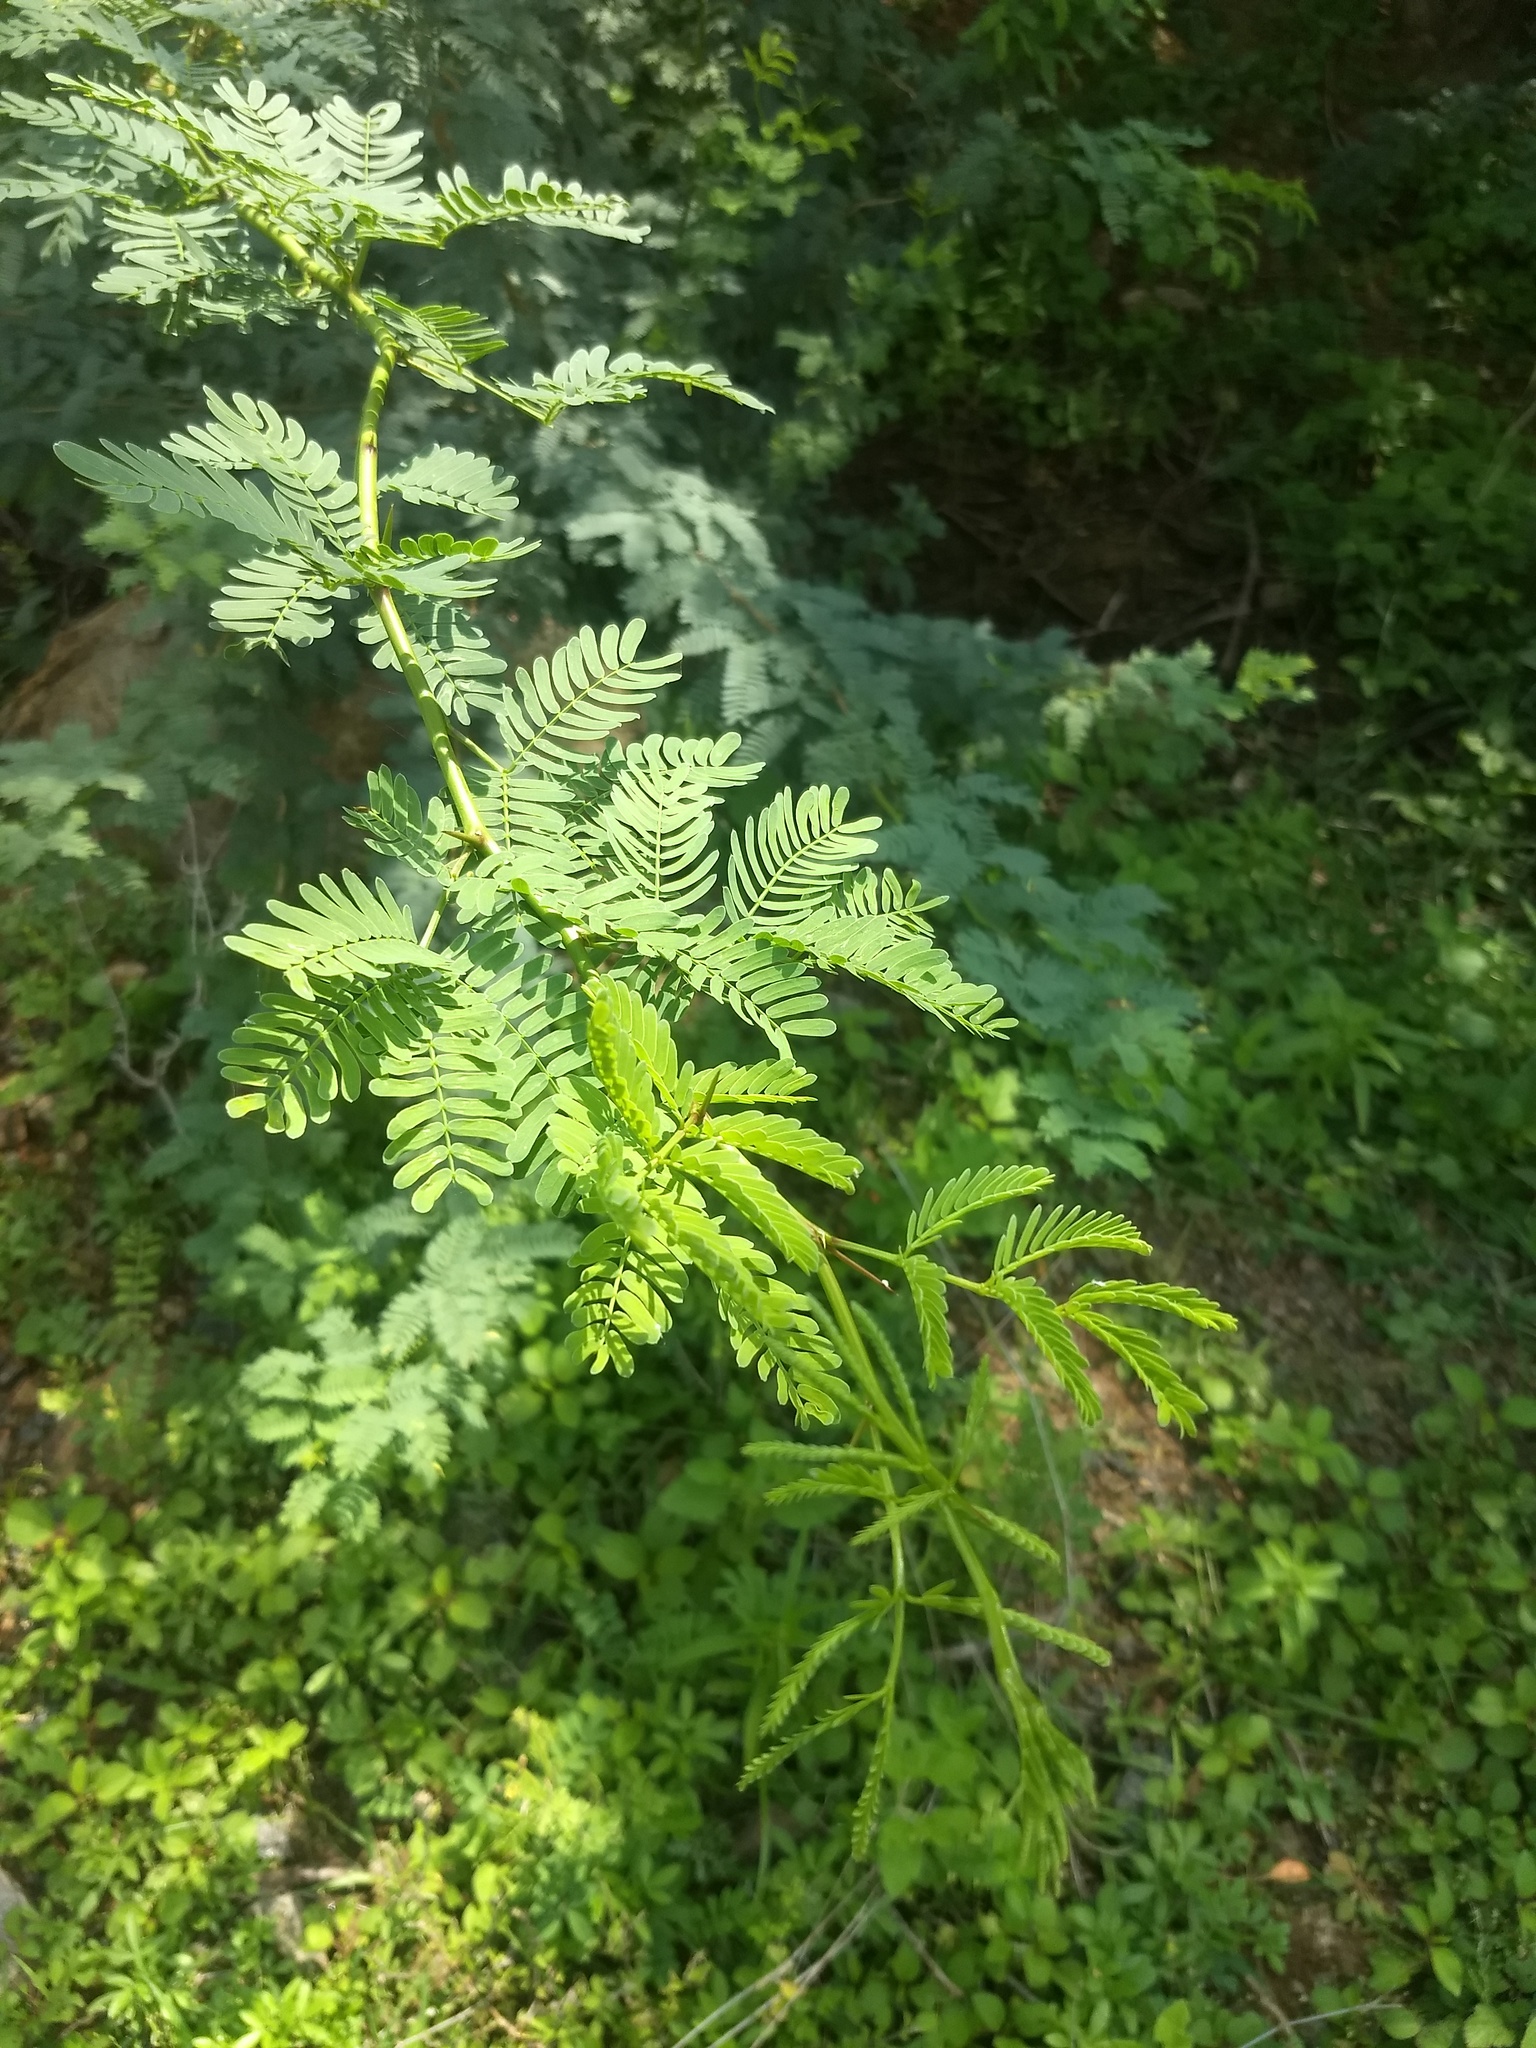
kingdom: Plantae
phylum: Tracheophyta
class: Magnoliopsida
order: Fabales
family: Fabaceae
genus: Prosopis
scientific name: Prosopis juliflora
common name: Mesquite
